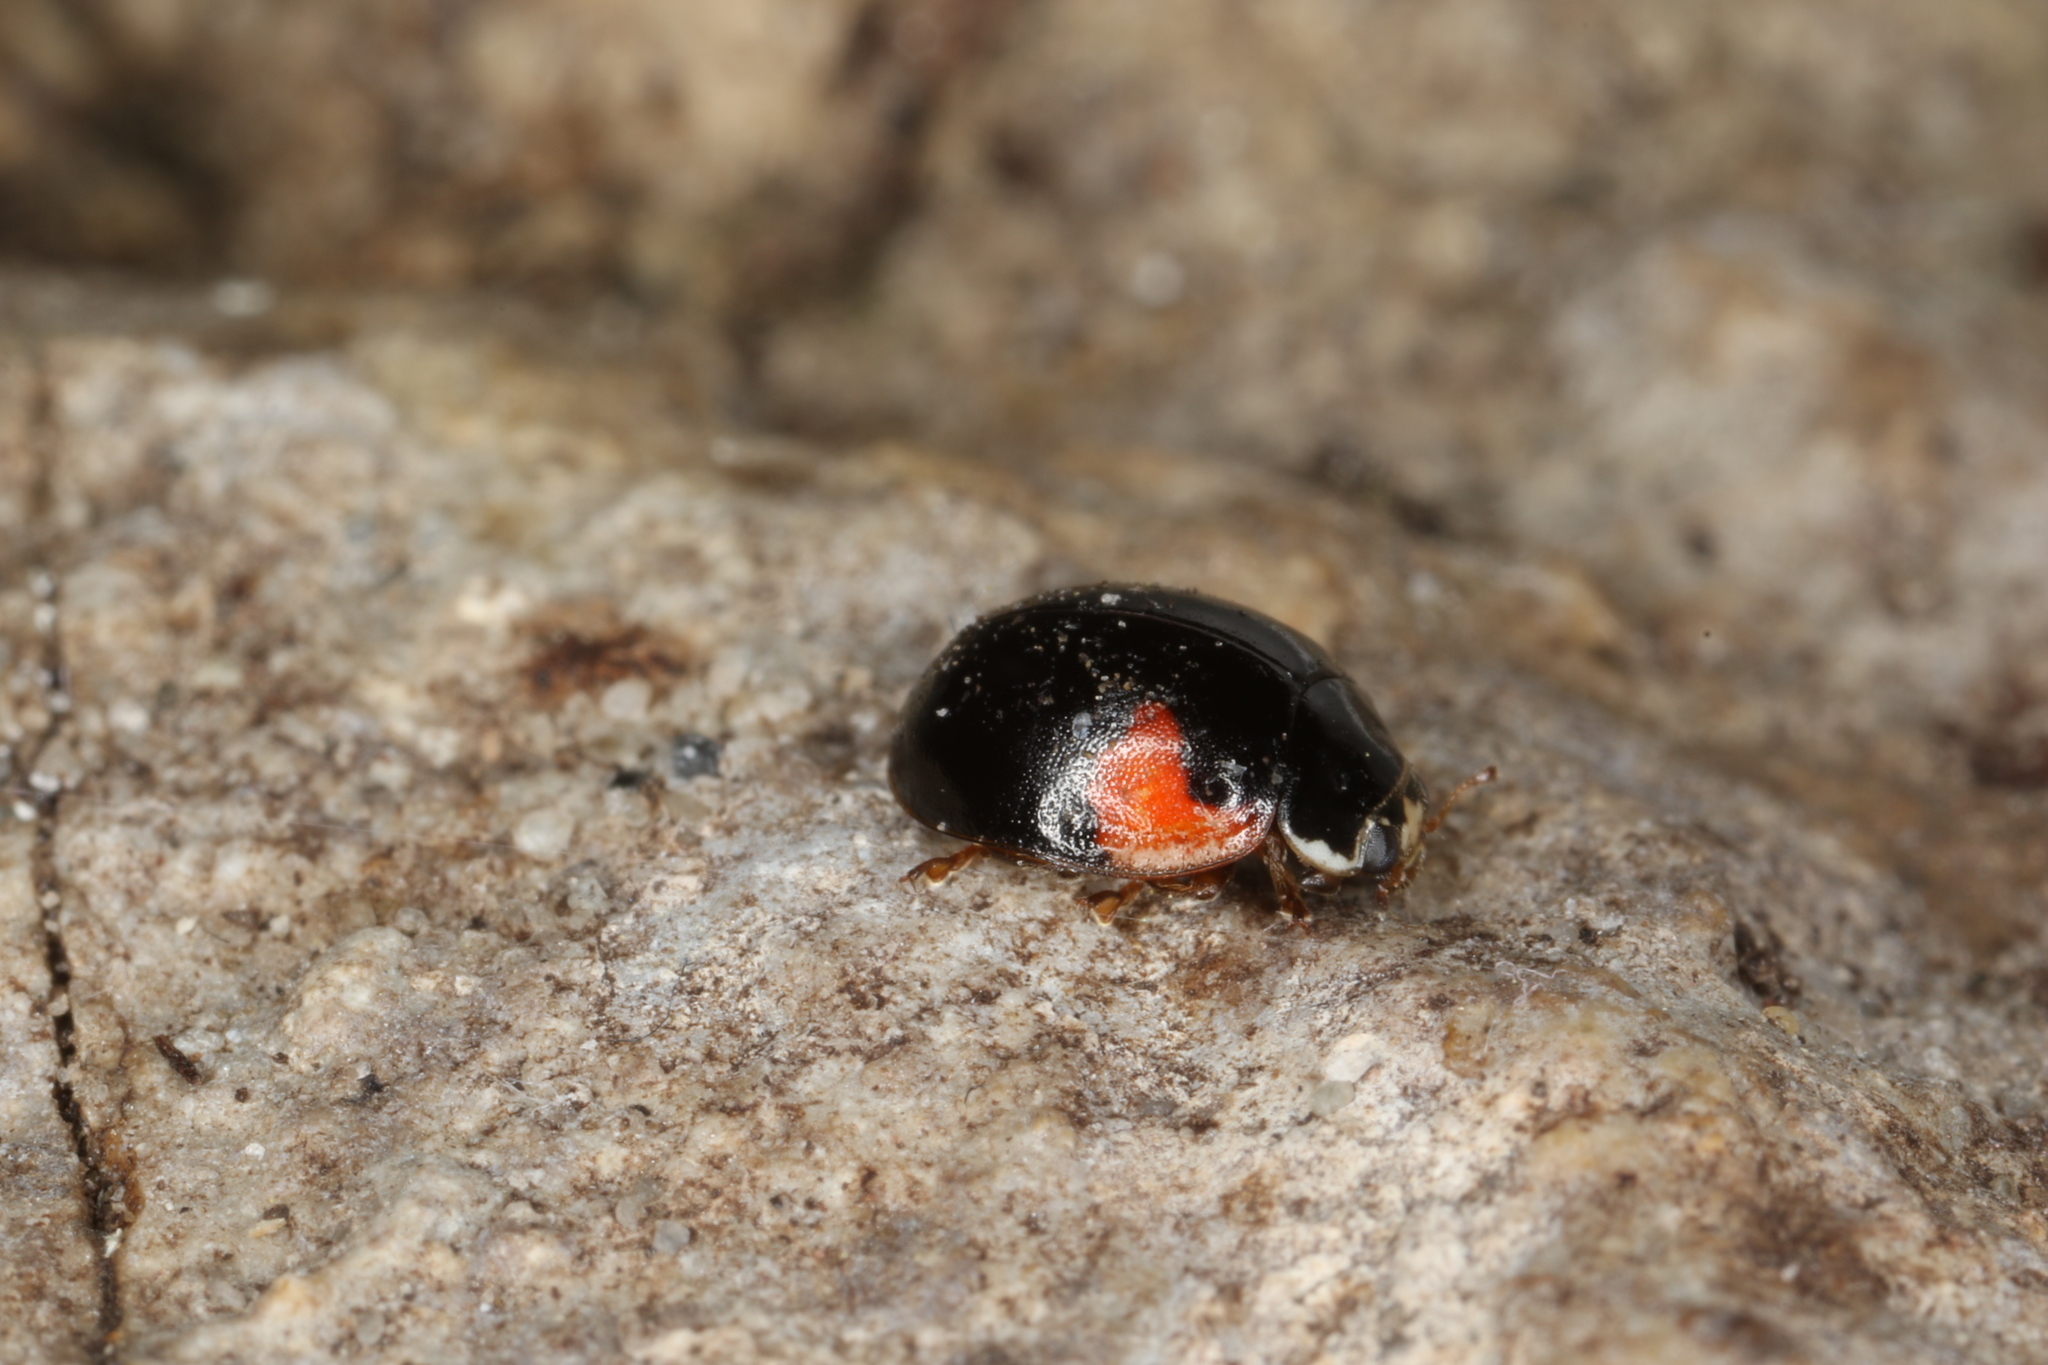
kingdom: Animalia
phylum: Arthropoda
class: Insecta
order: Coleoptera
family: Coccinellidae
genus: Adalia
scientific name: Adalia decempunctata
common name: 10-spot ladybird
